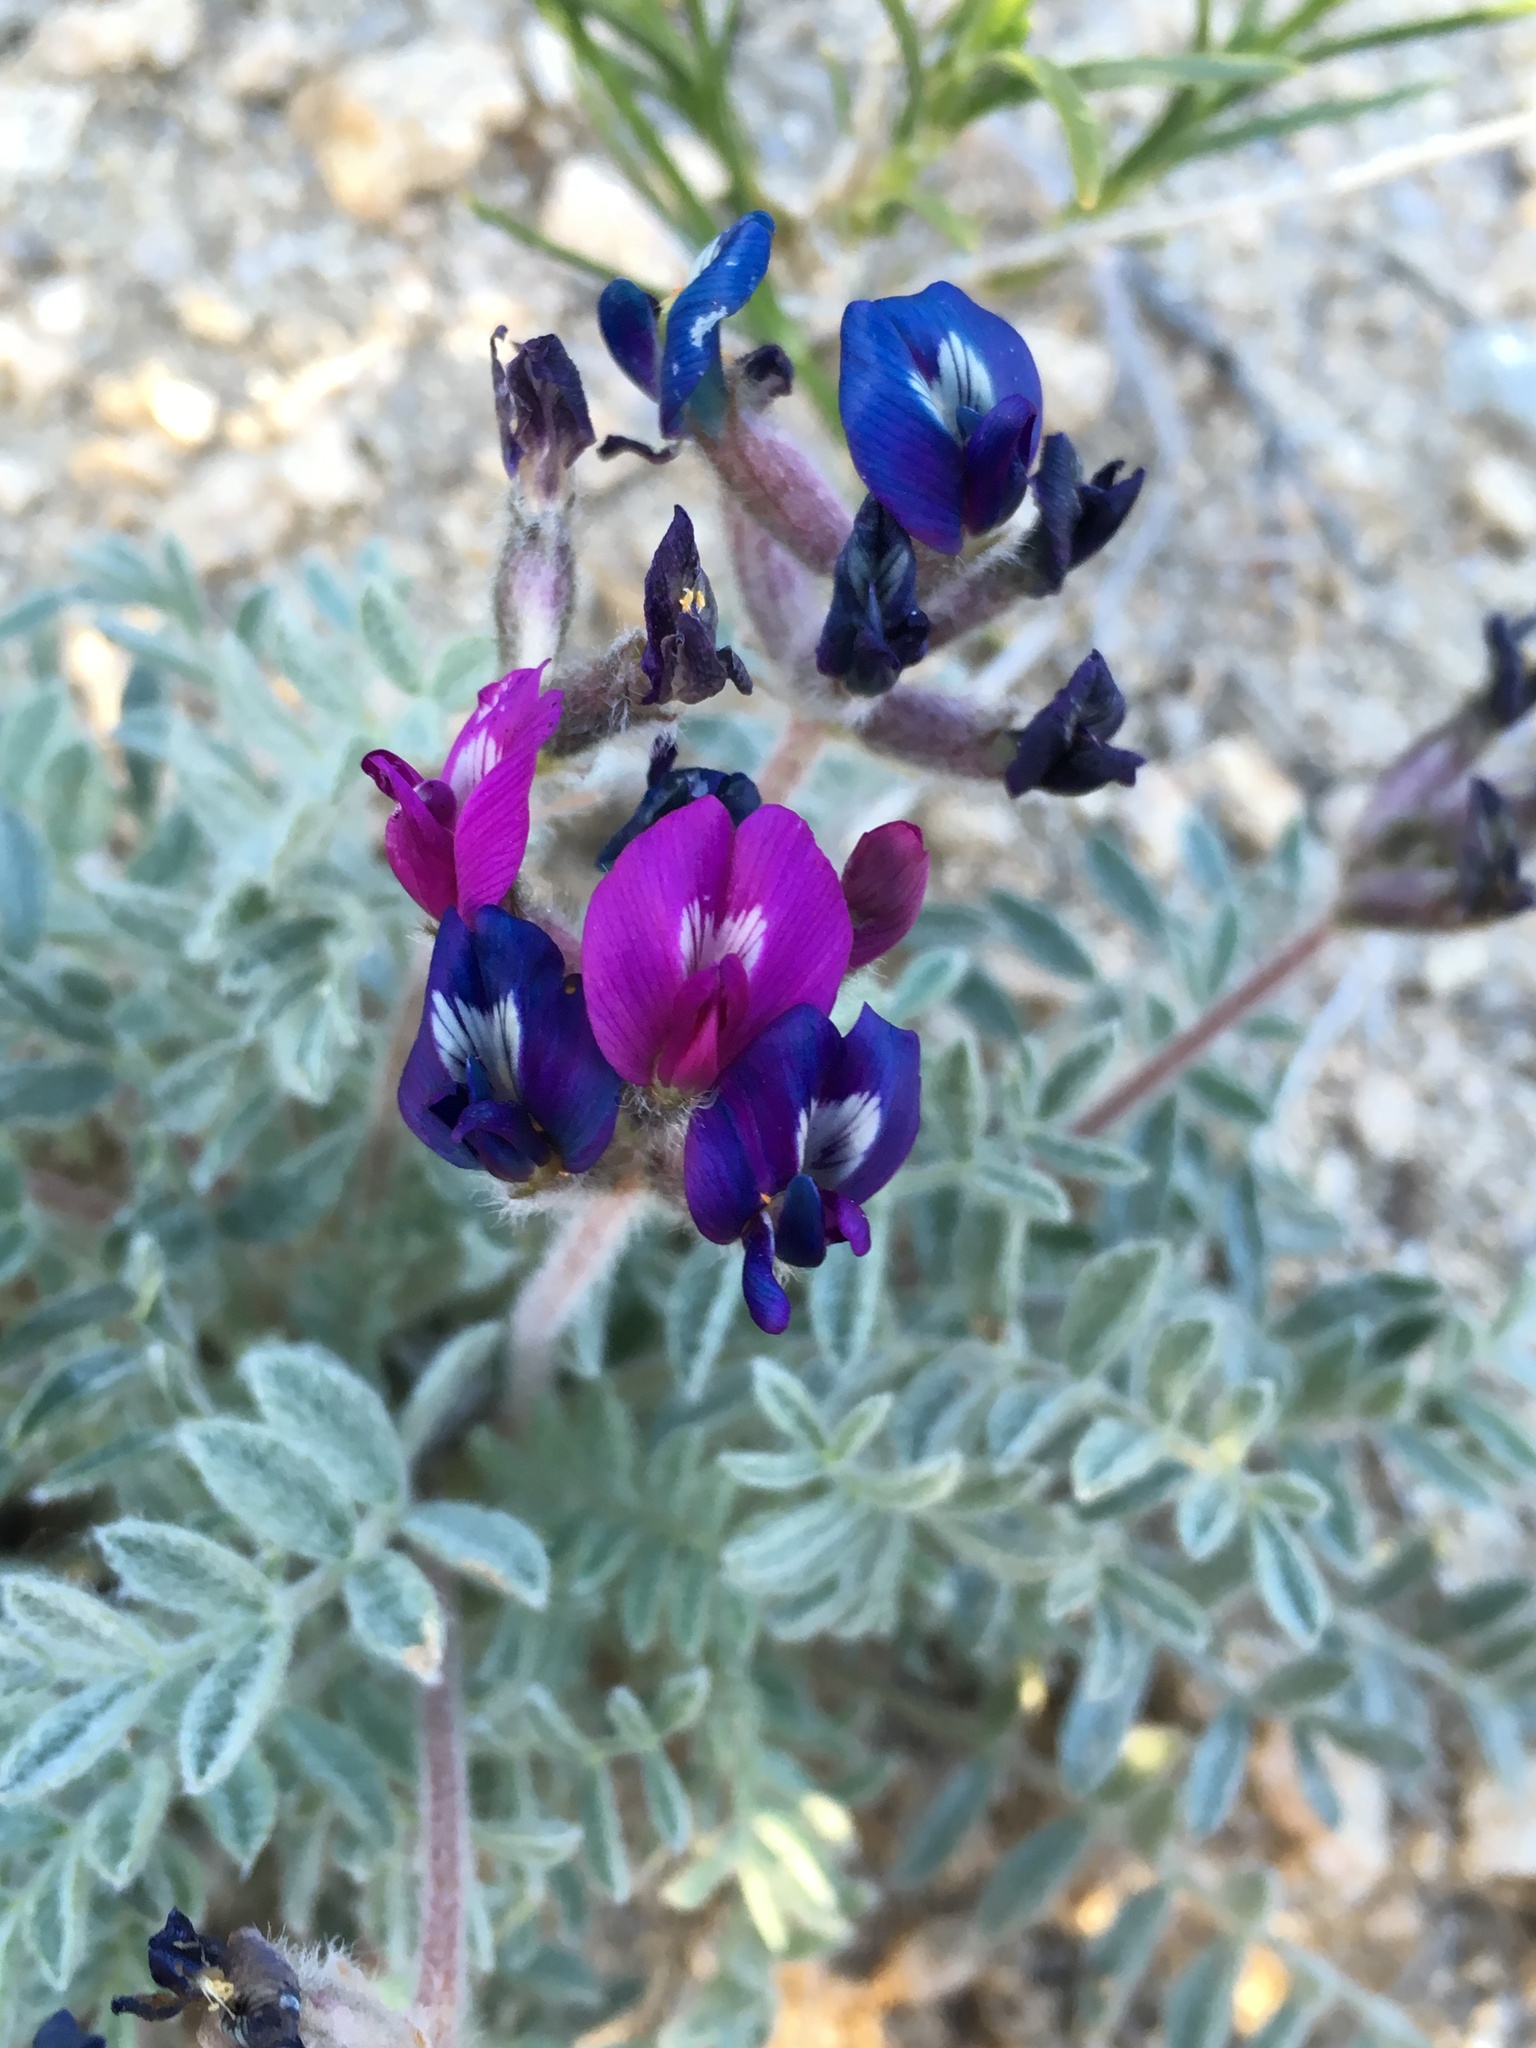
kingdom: Plantae
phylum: Tracheophyta
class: Magnoliopsida
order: Fabales
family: Fabaceae
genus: Astragalus
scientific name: Astragalus purshii
